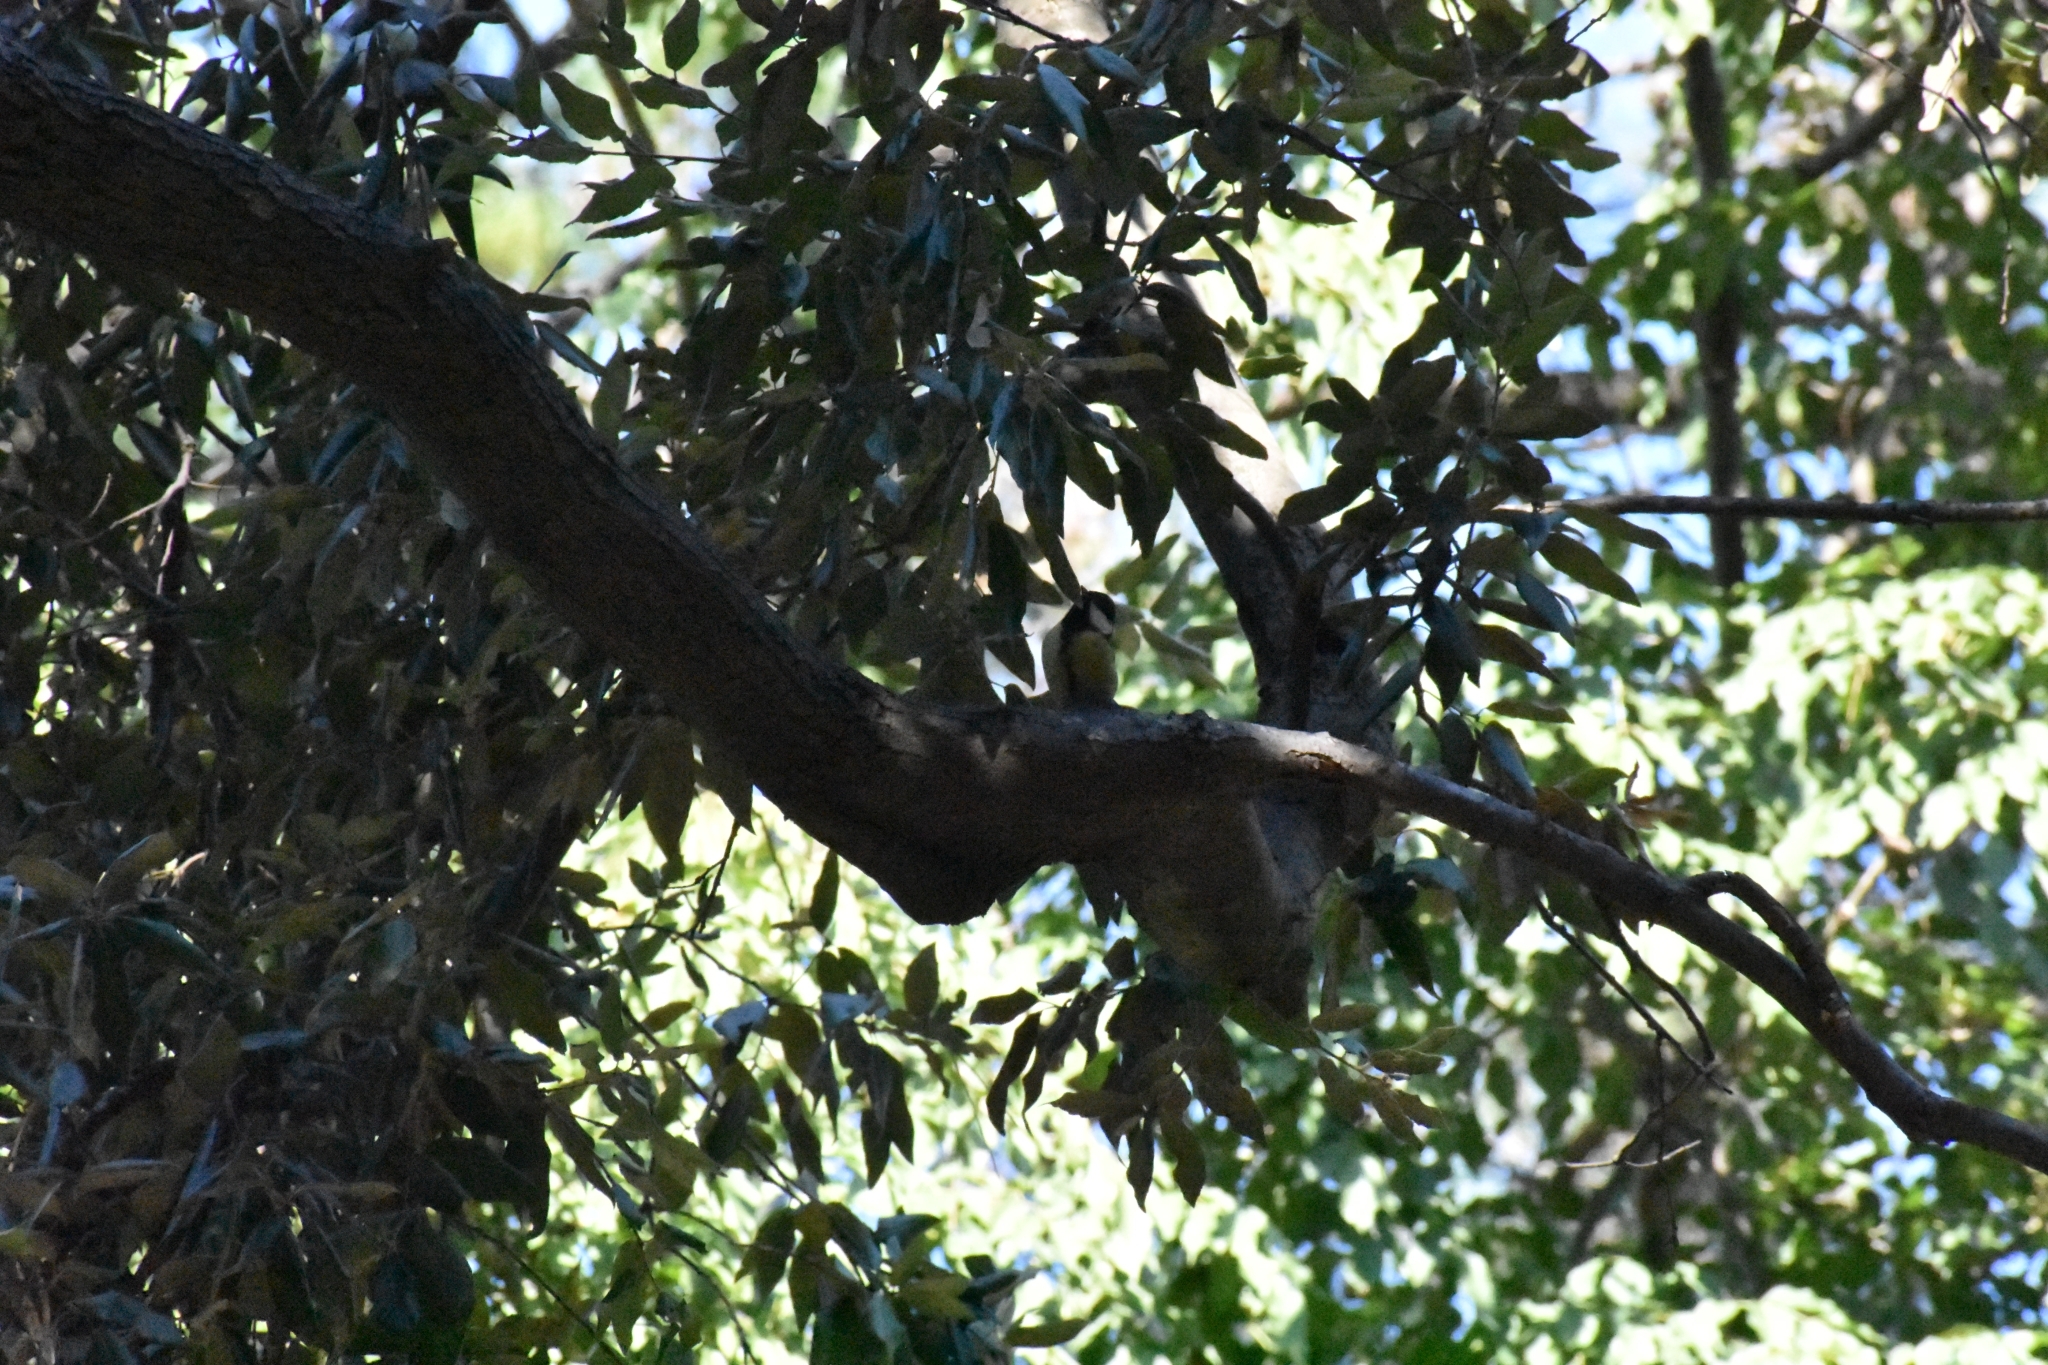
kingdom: Animalia
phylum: Chordata
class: Aves
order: Passeriformes
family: Paridae
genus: Parus
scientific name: Parus major
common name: Great tit
